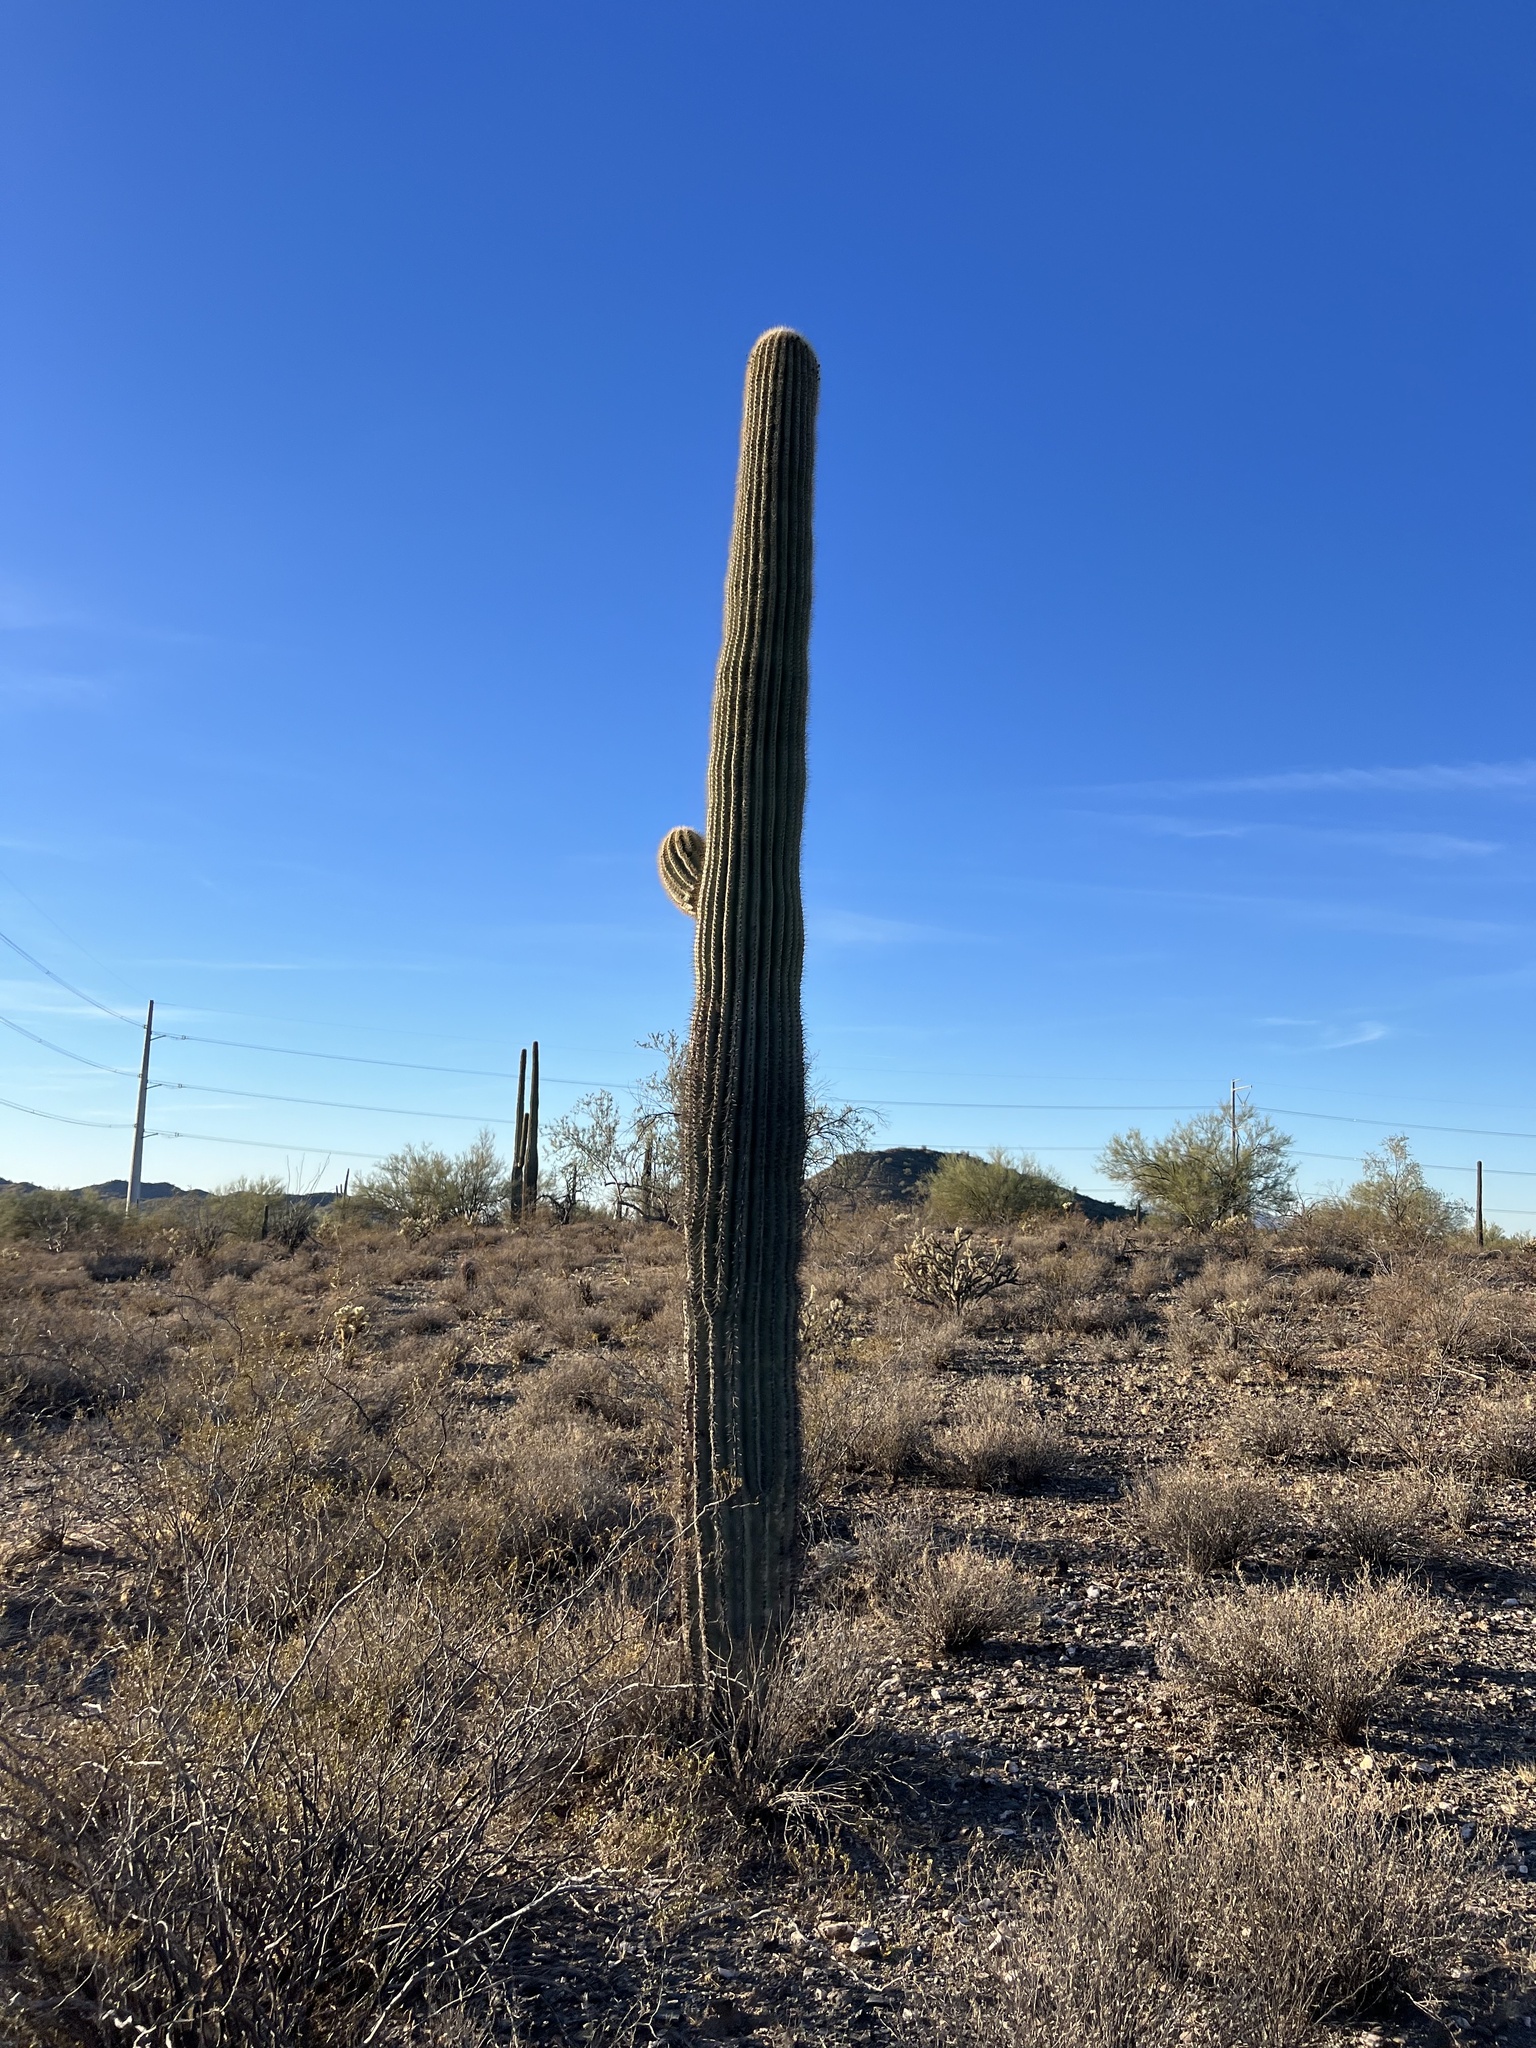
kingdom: Plantae
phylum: Tracheophyta
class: Magnoliopsida
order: Caryophyllales
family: Cactaceae
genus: Carnegiea
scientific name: Carnegiea gigantea
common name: Saguaro
